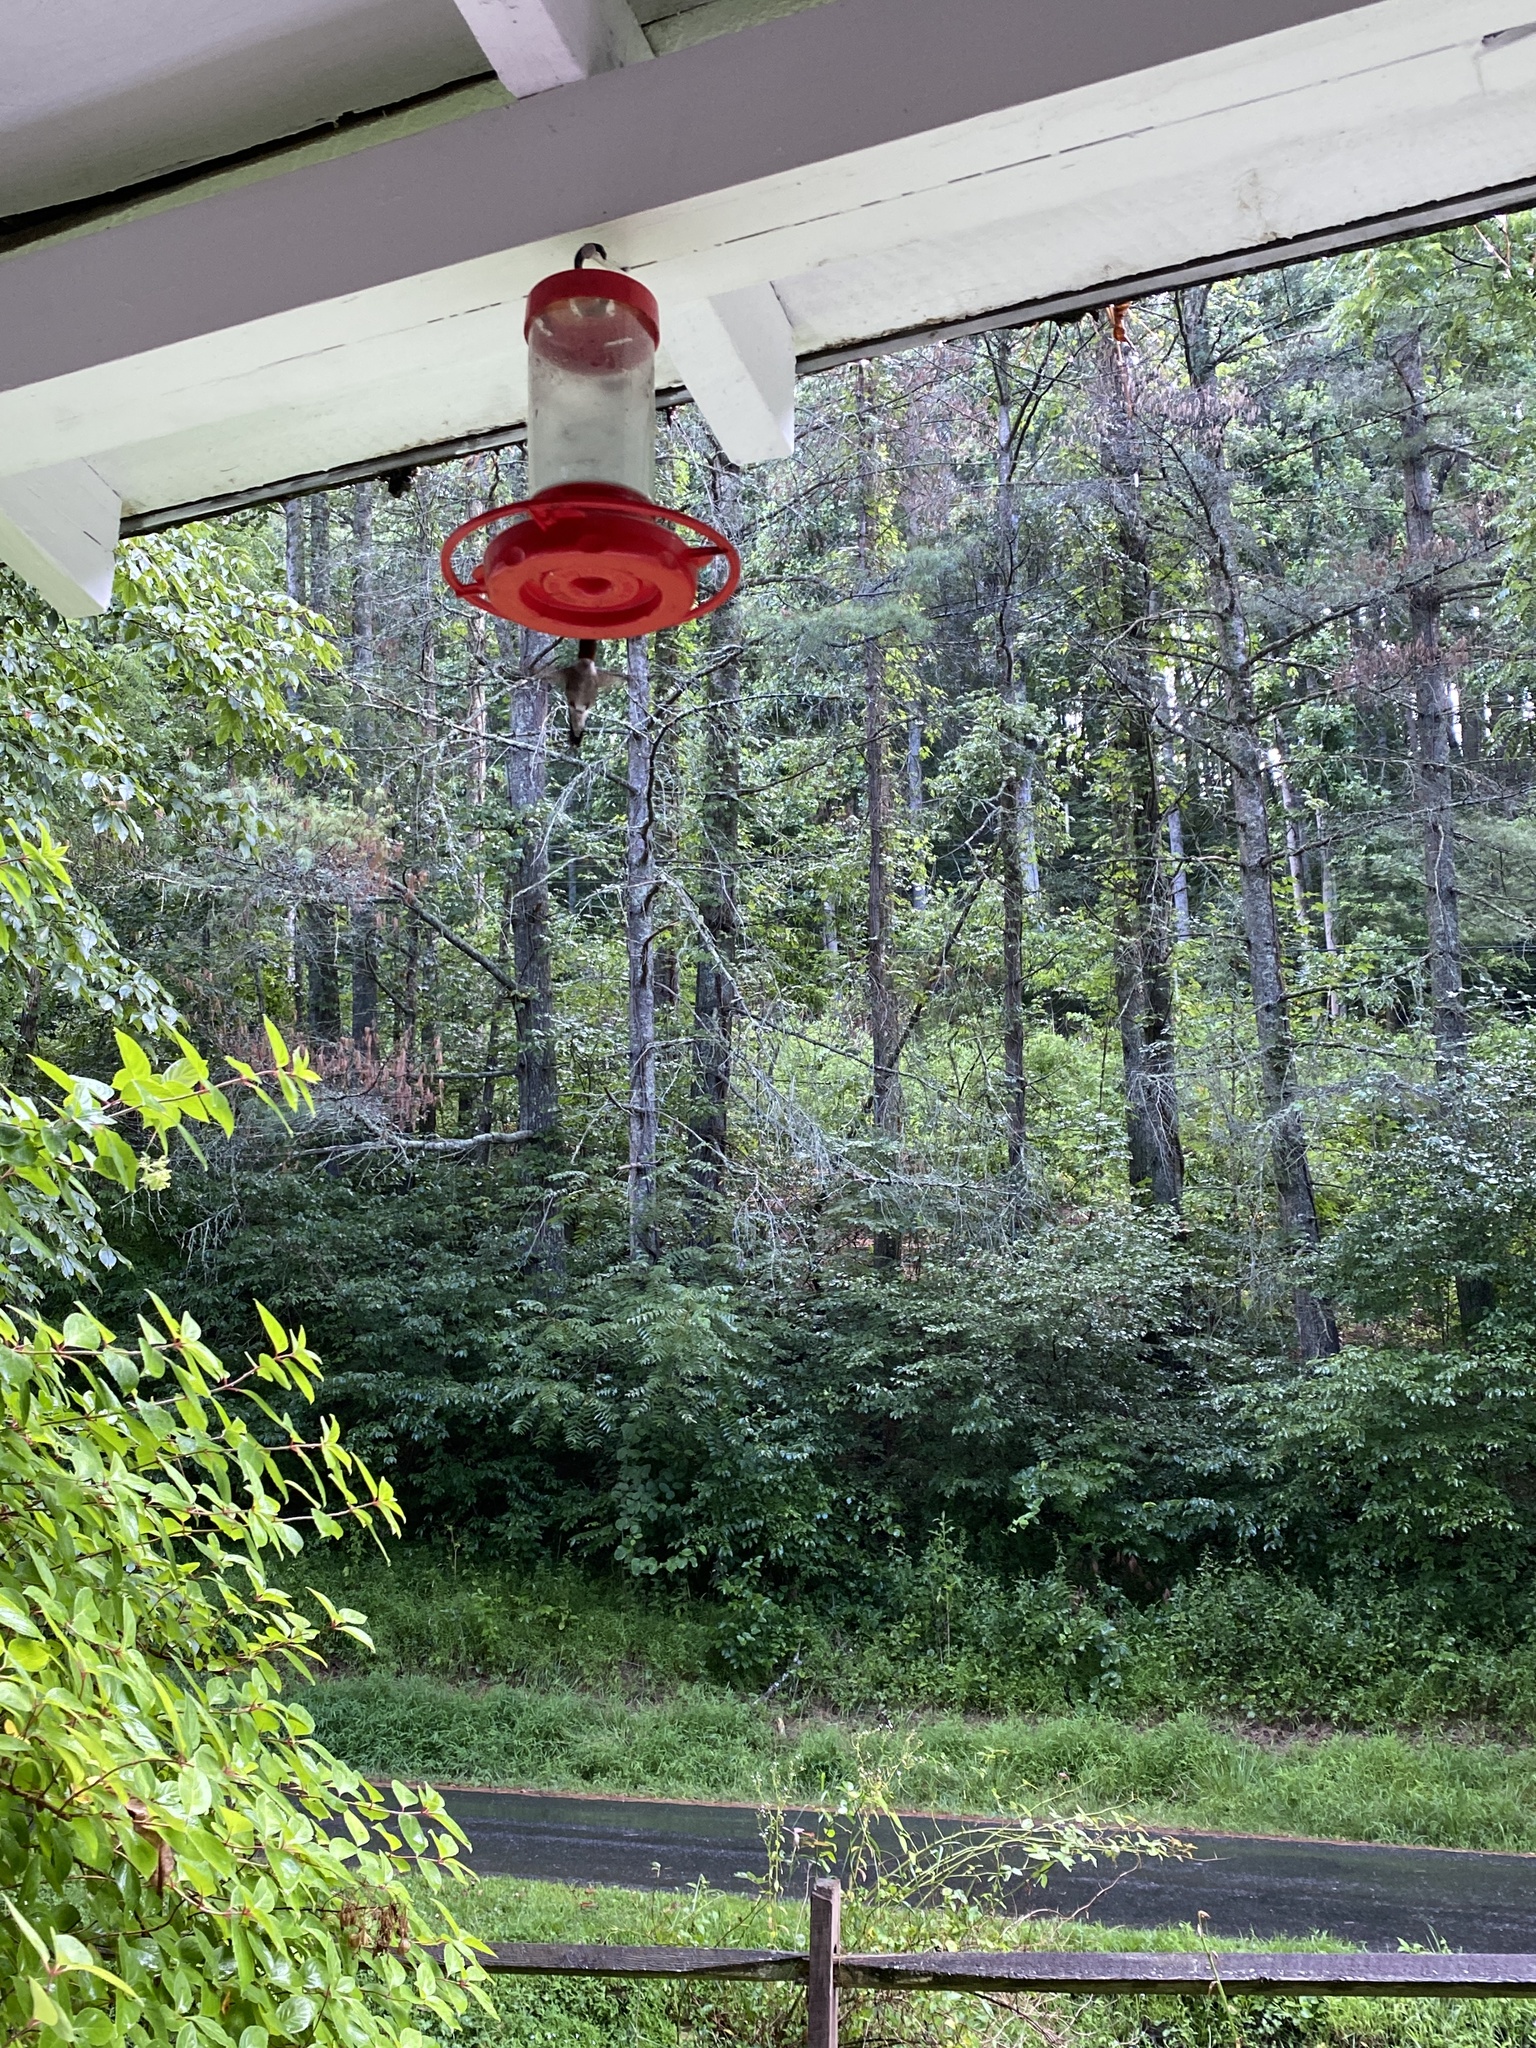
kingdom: Animalia
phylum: Chordata
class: Aves
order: Apodiformes
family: Trochilidae
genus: Archilochus
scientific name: Archilochus colubris
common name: Ruby-throated hummingbird
